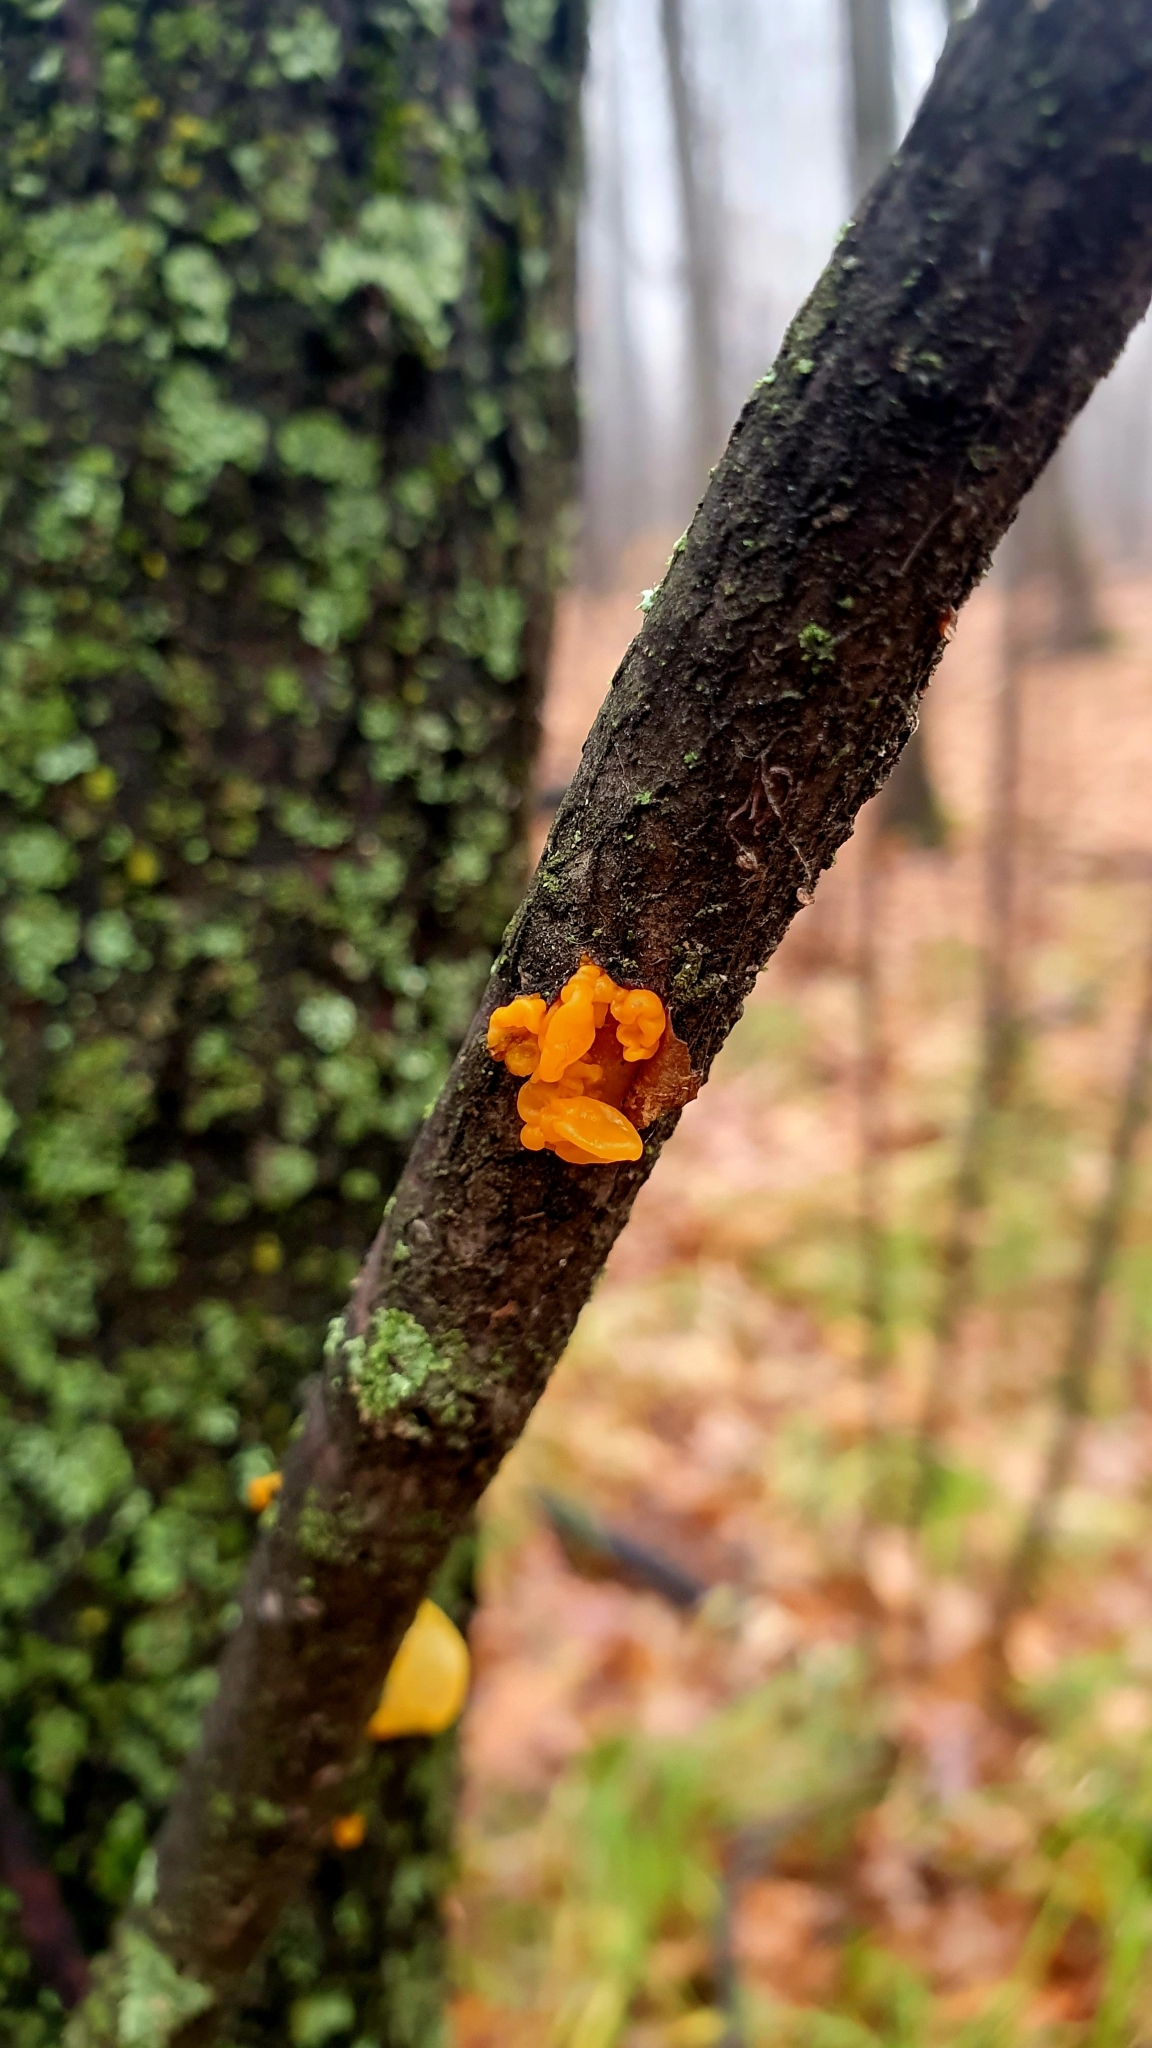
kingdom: Fungi
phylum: Basidiomycota
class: Tremellomycetes
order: Tremellales
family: Tremellaceae
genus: Tremella
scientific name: Tremella mesenterica
